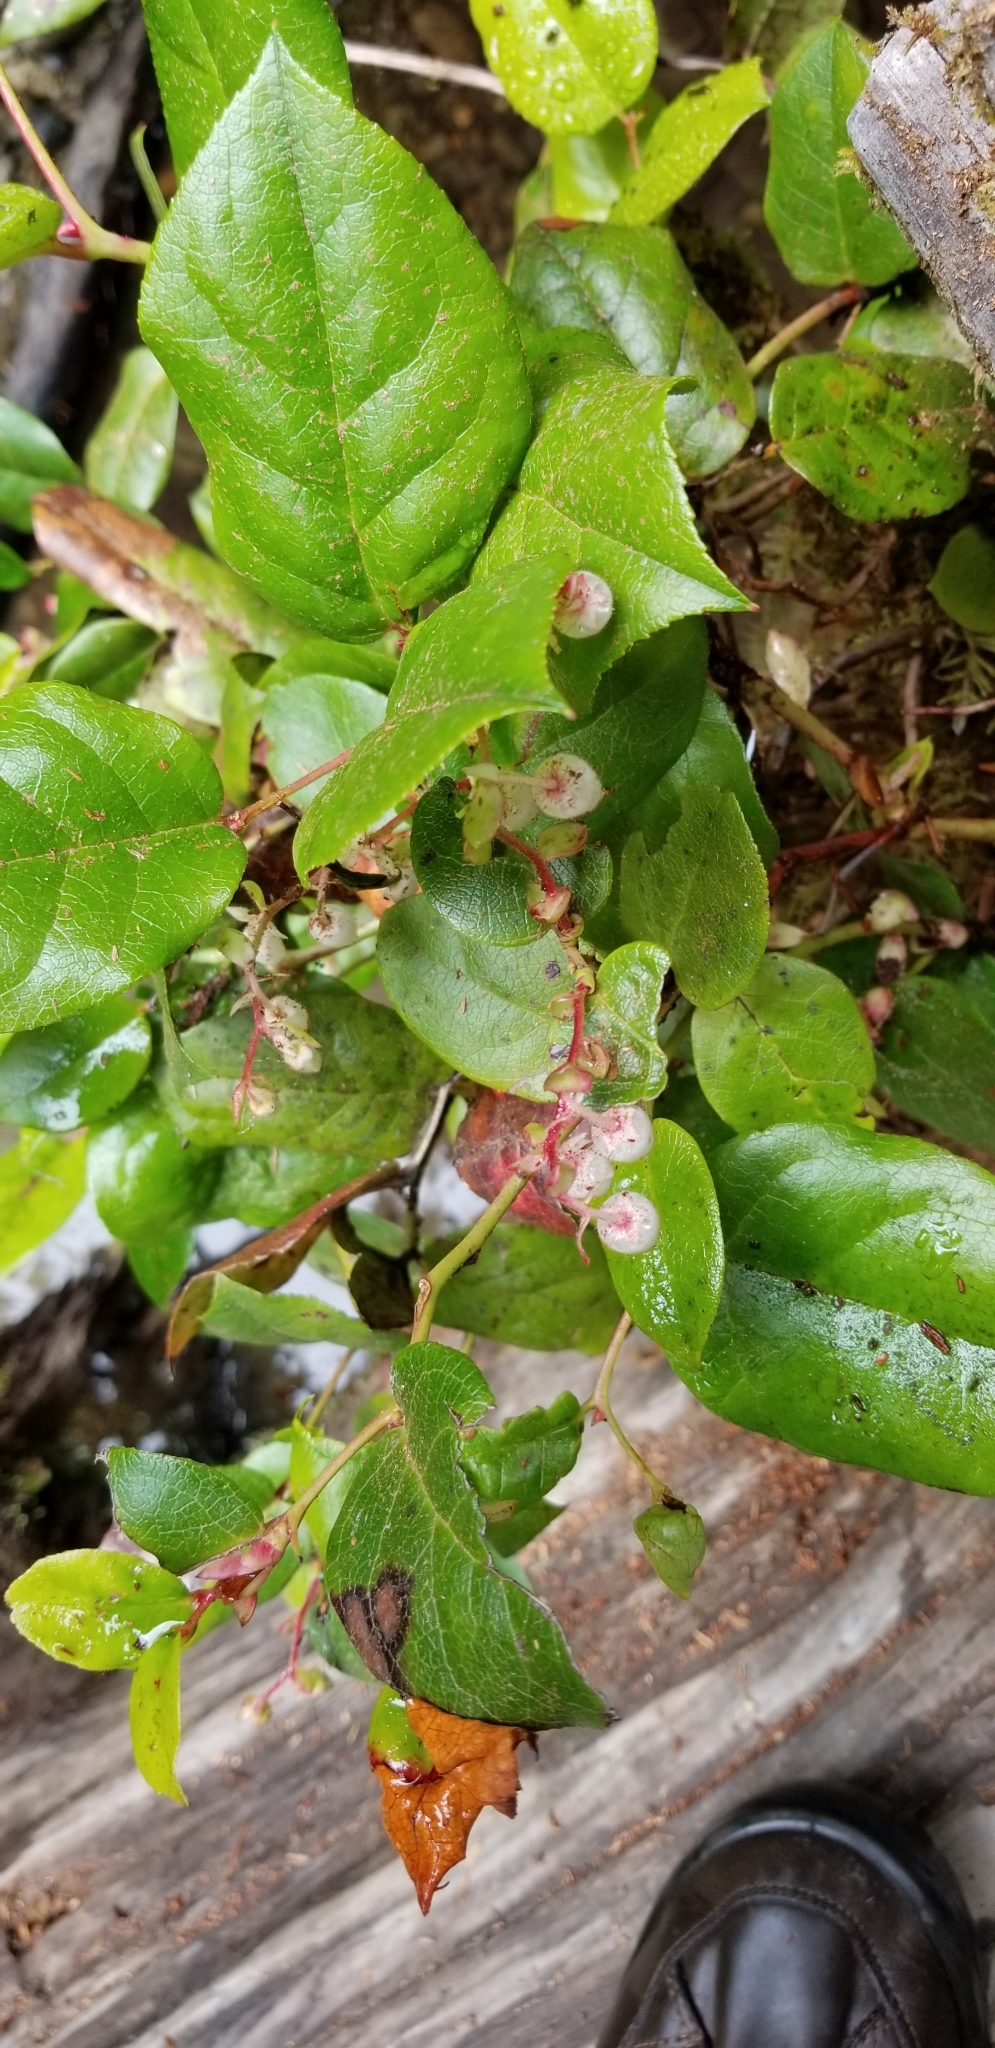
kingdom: Plantae
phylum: Tracheophyta
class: Magnoliopsida
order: Ericales
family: Ericaceae
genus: Gaultheria
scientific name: Gaultheria shallon
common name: Shallon
